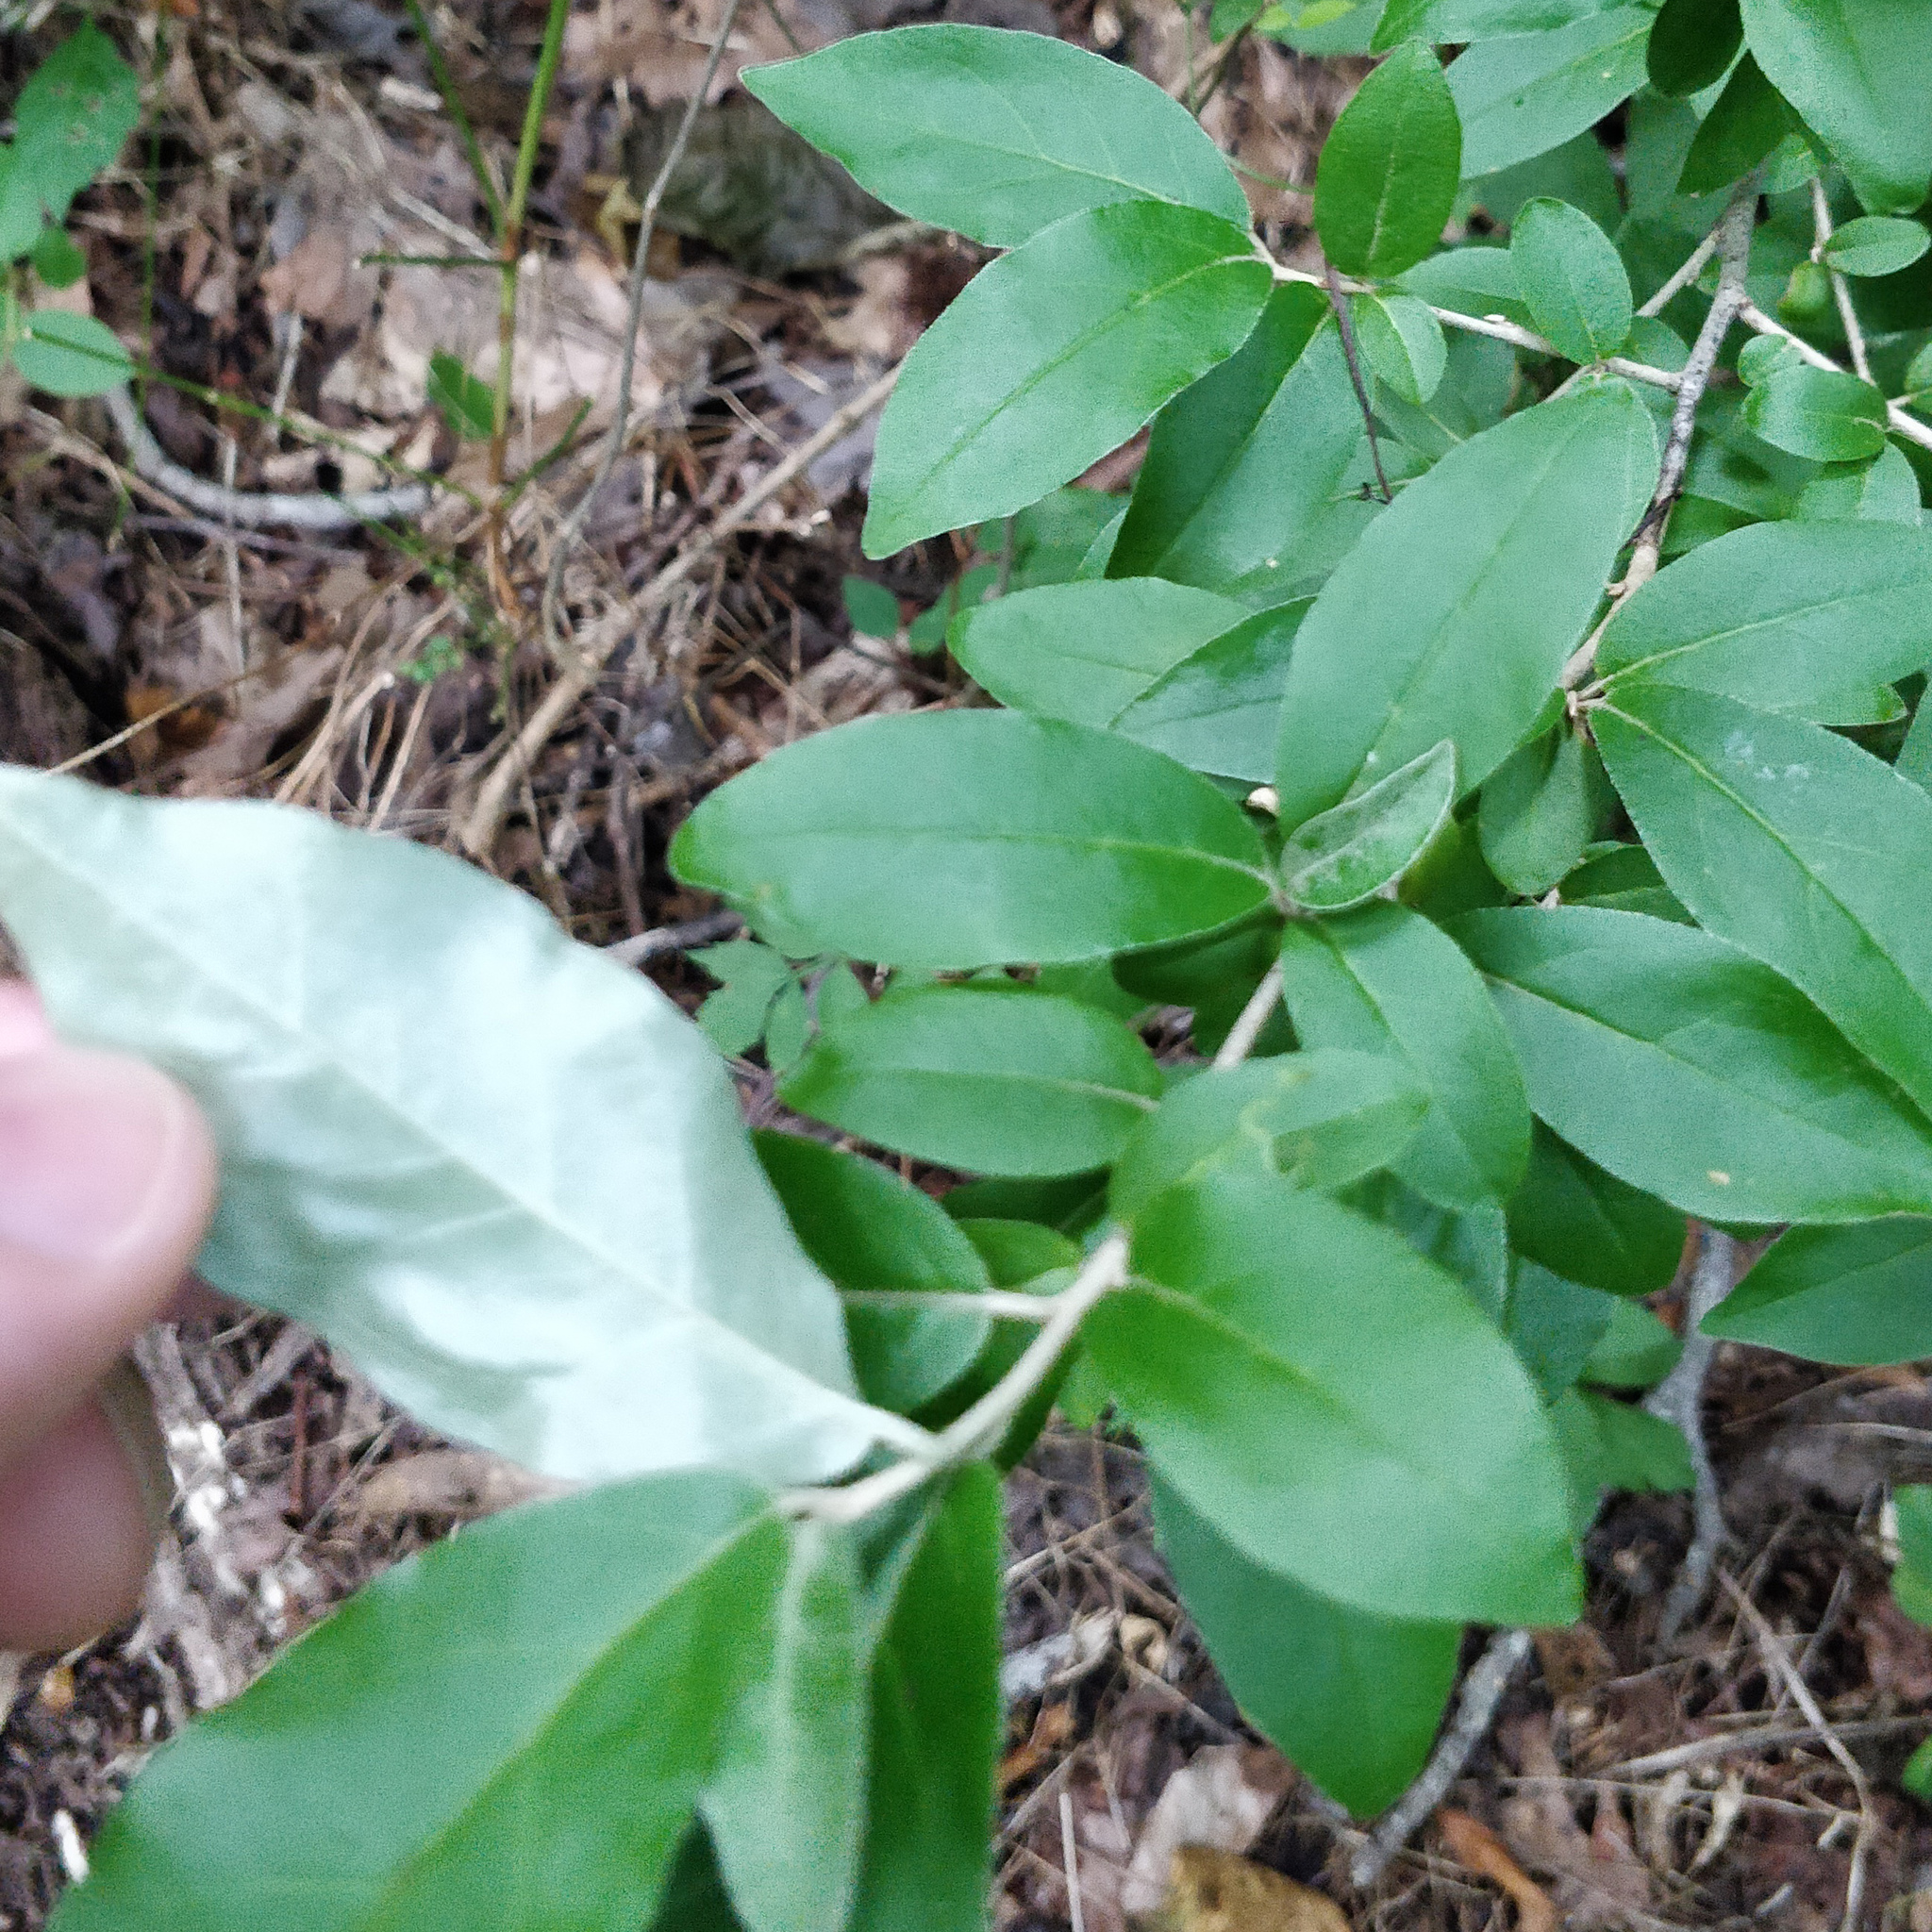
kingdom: Plantae
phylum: Tracheophyta
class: Magnoliopsida
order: Rosales
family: Elaeagnaceae
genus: Elaeagnus
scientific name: Elaeagnus umbellata
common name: Autumn olive
